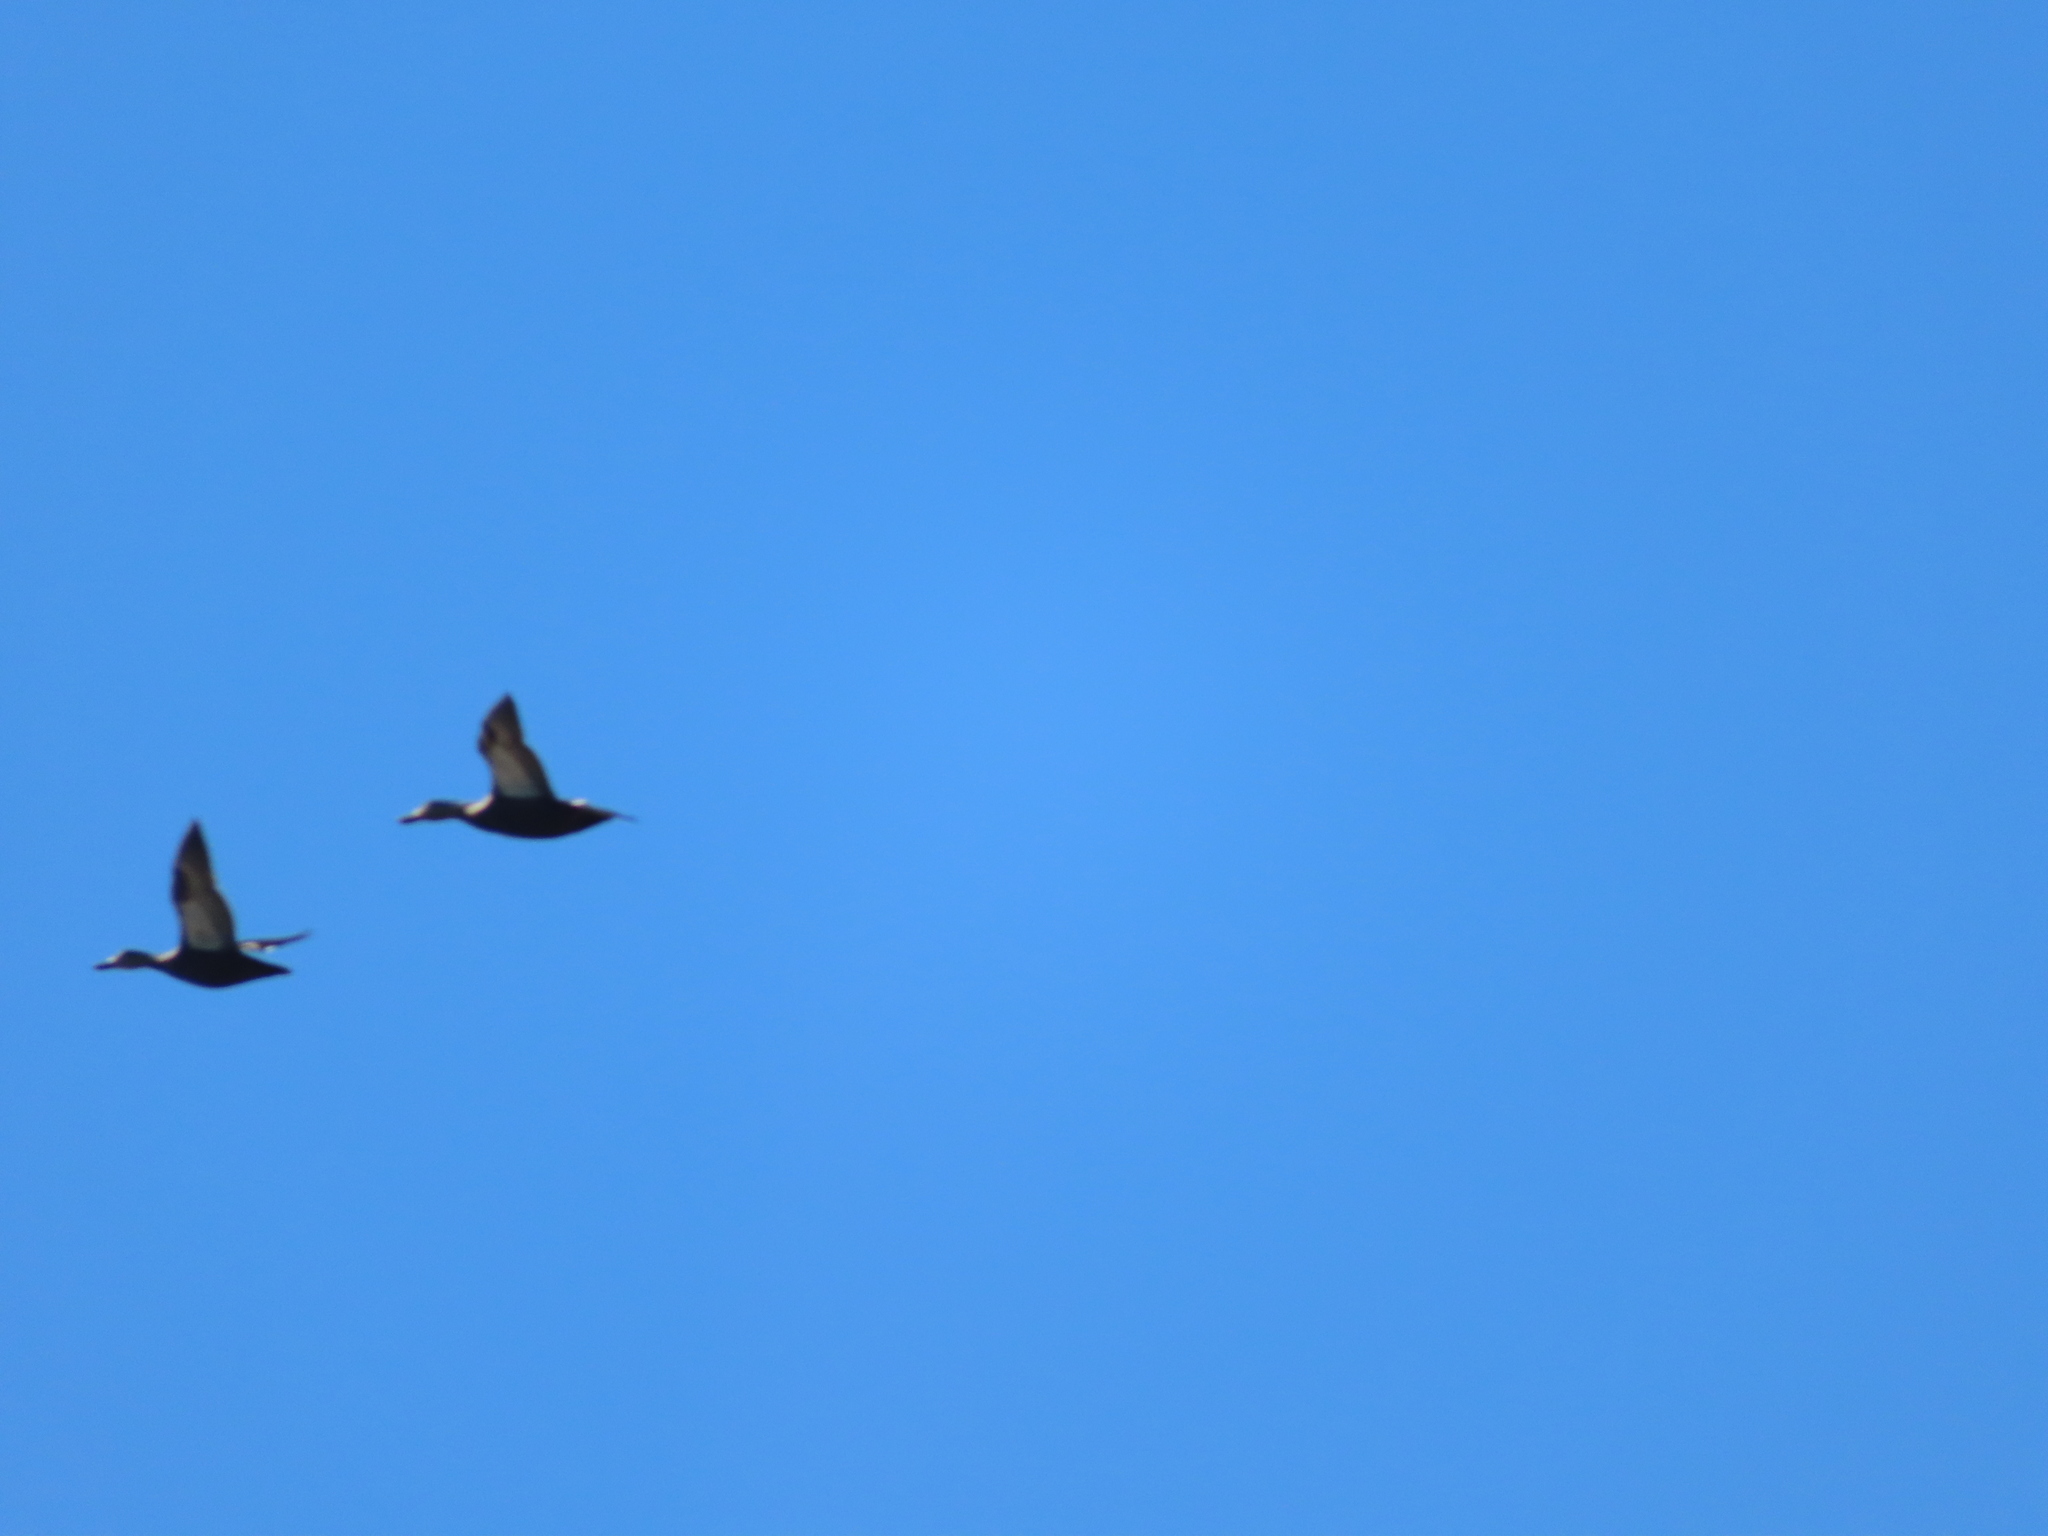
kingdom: Animalia
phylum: Chordata
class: Aves
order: Anseriformes
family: Anatidae
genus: Anas
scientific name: Anas rubripes
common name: American black duck
